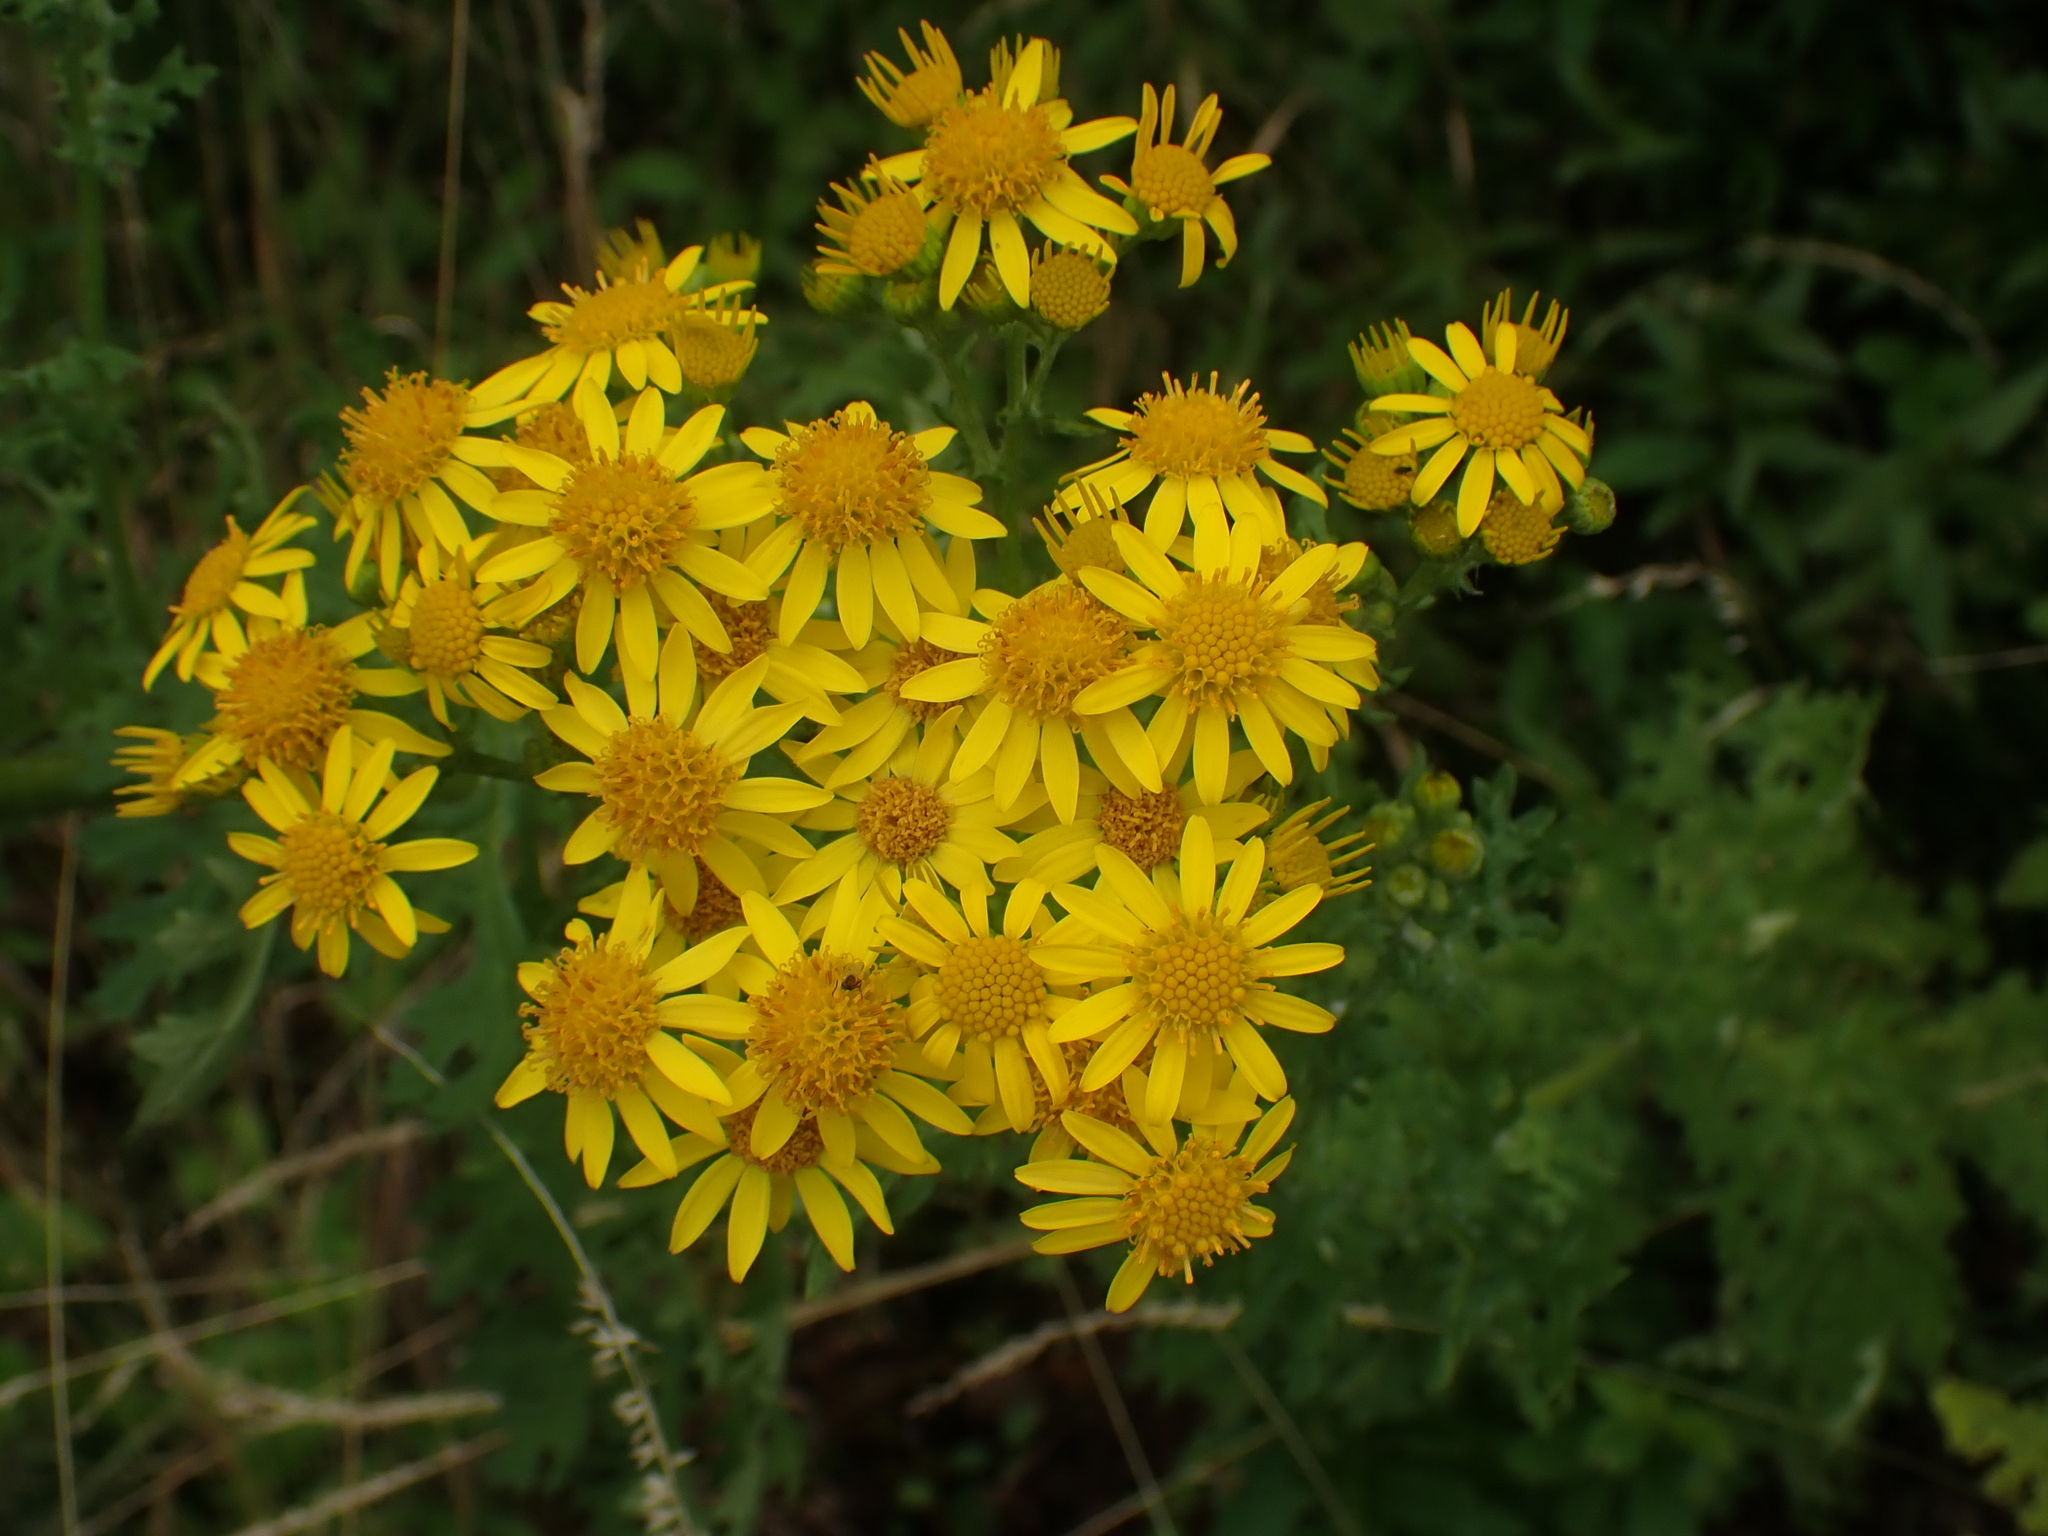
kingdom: Plantae
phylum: Tracheophyta
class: Magnoliopsida
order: Asterales
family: Asteraceae
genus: Jacobaea
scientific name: Jacobaea vulgaris
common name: Stinking willie
